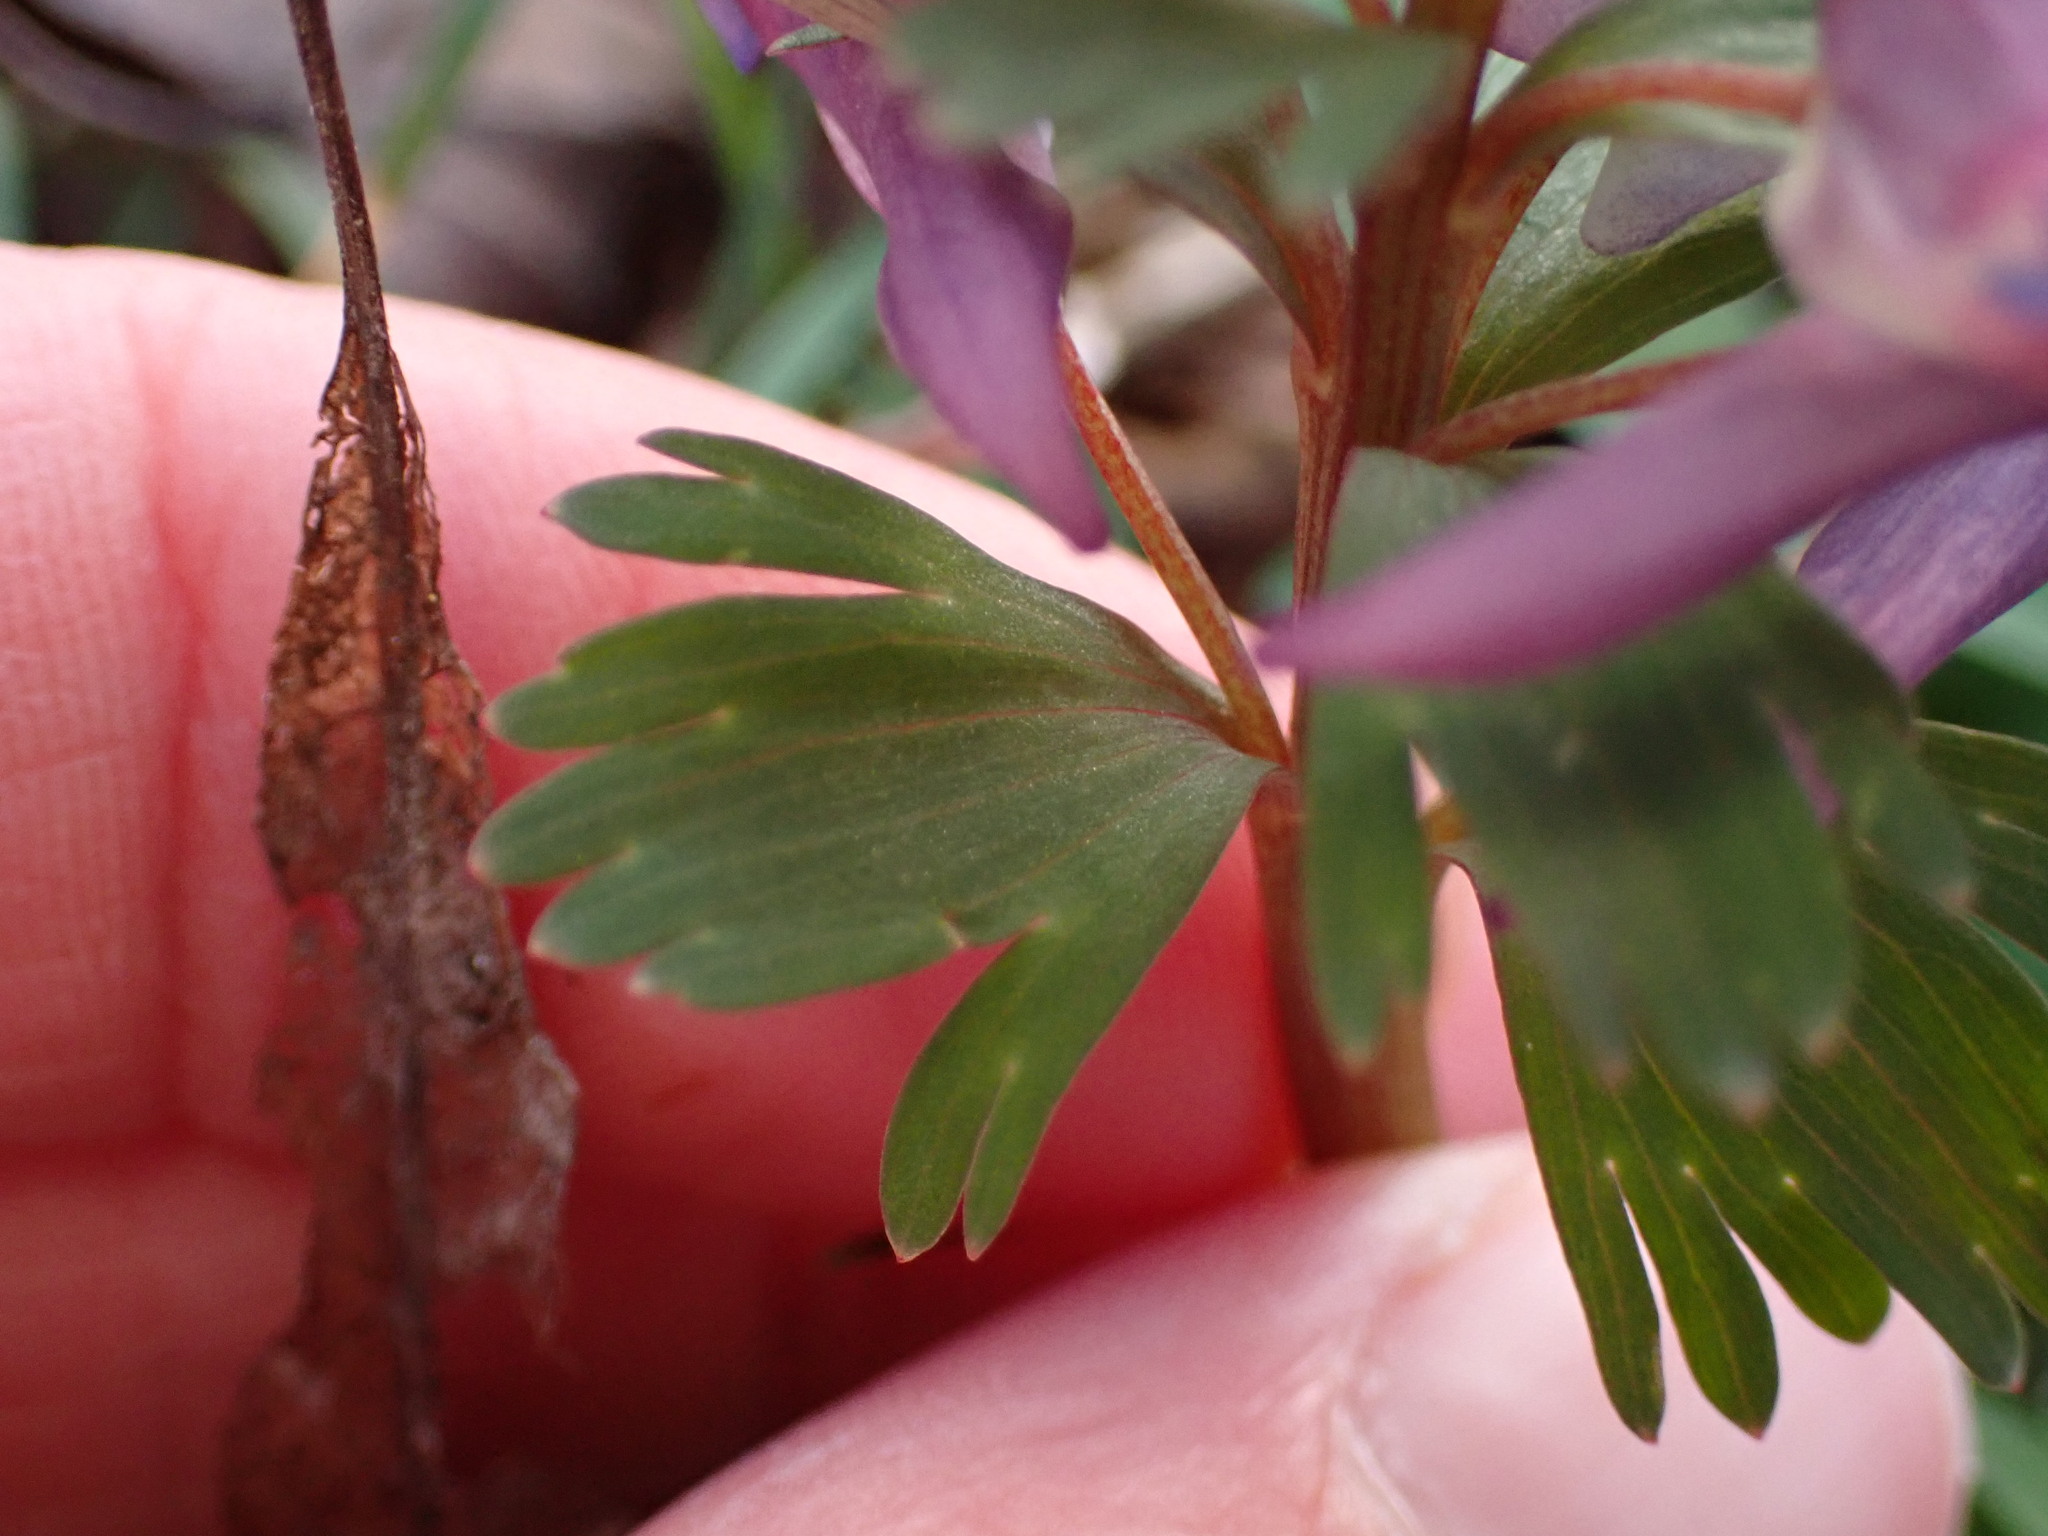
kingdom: Plantae
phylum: Tracheophyta
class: Magnoliopsida
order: Ranunculales
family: Papaveraceae
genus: Corydalis
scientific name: Corydalis solida
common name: Bird-in-a-bush
